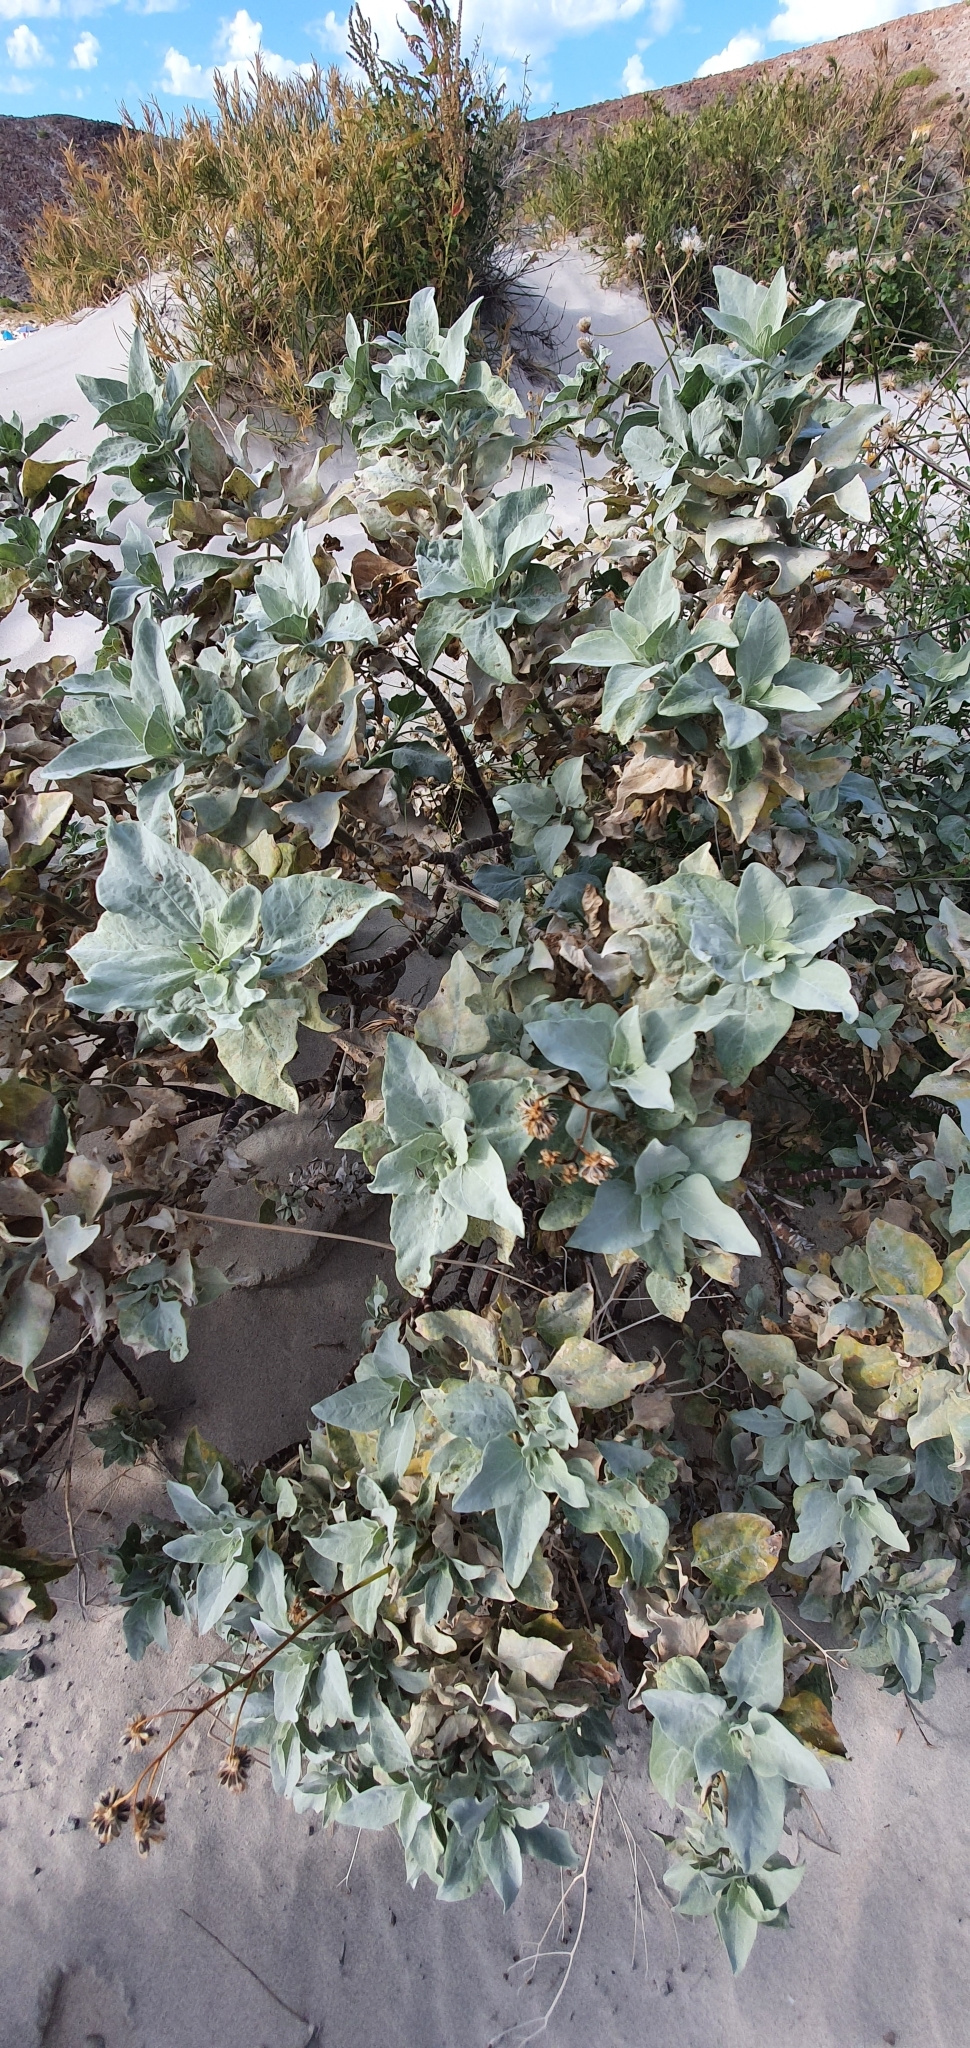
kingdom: Plantae
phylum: Tracheophyta
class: Magnoliopsida
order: Asterales
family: Asteraceae
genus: Encelia
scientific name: Encelia farinosa
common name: Brittlebush
